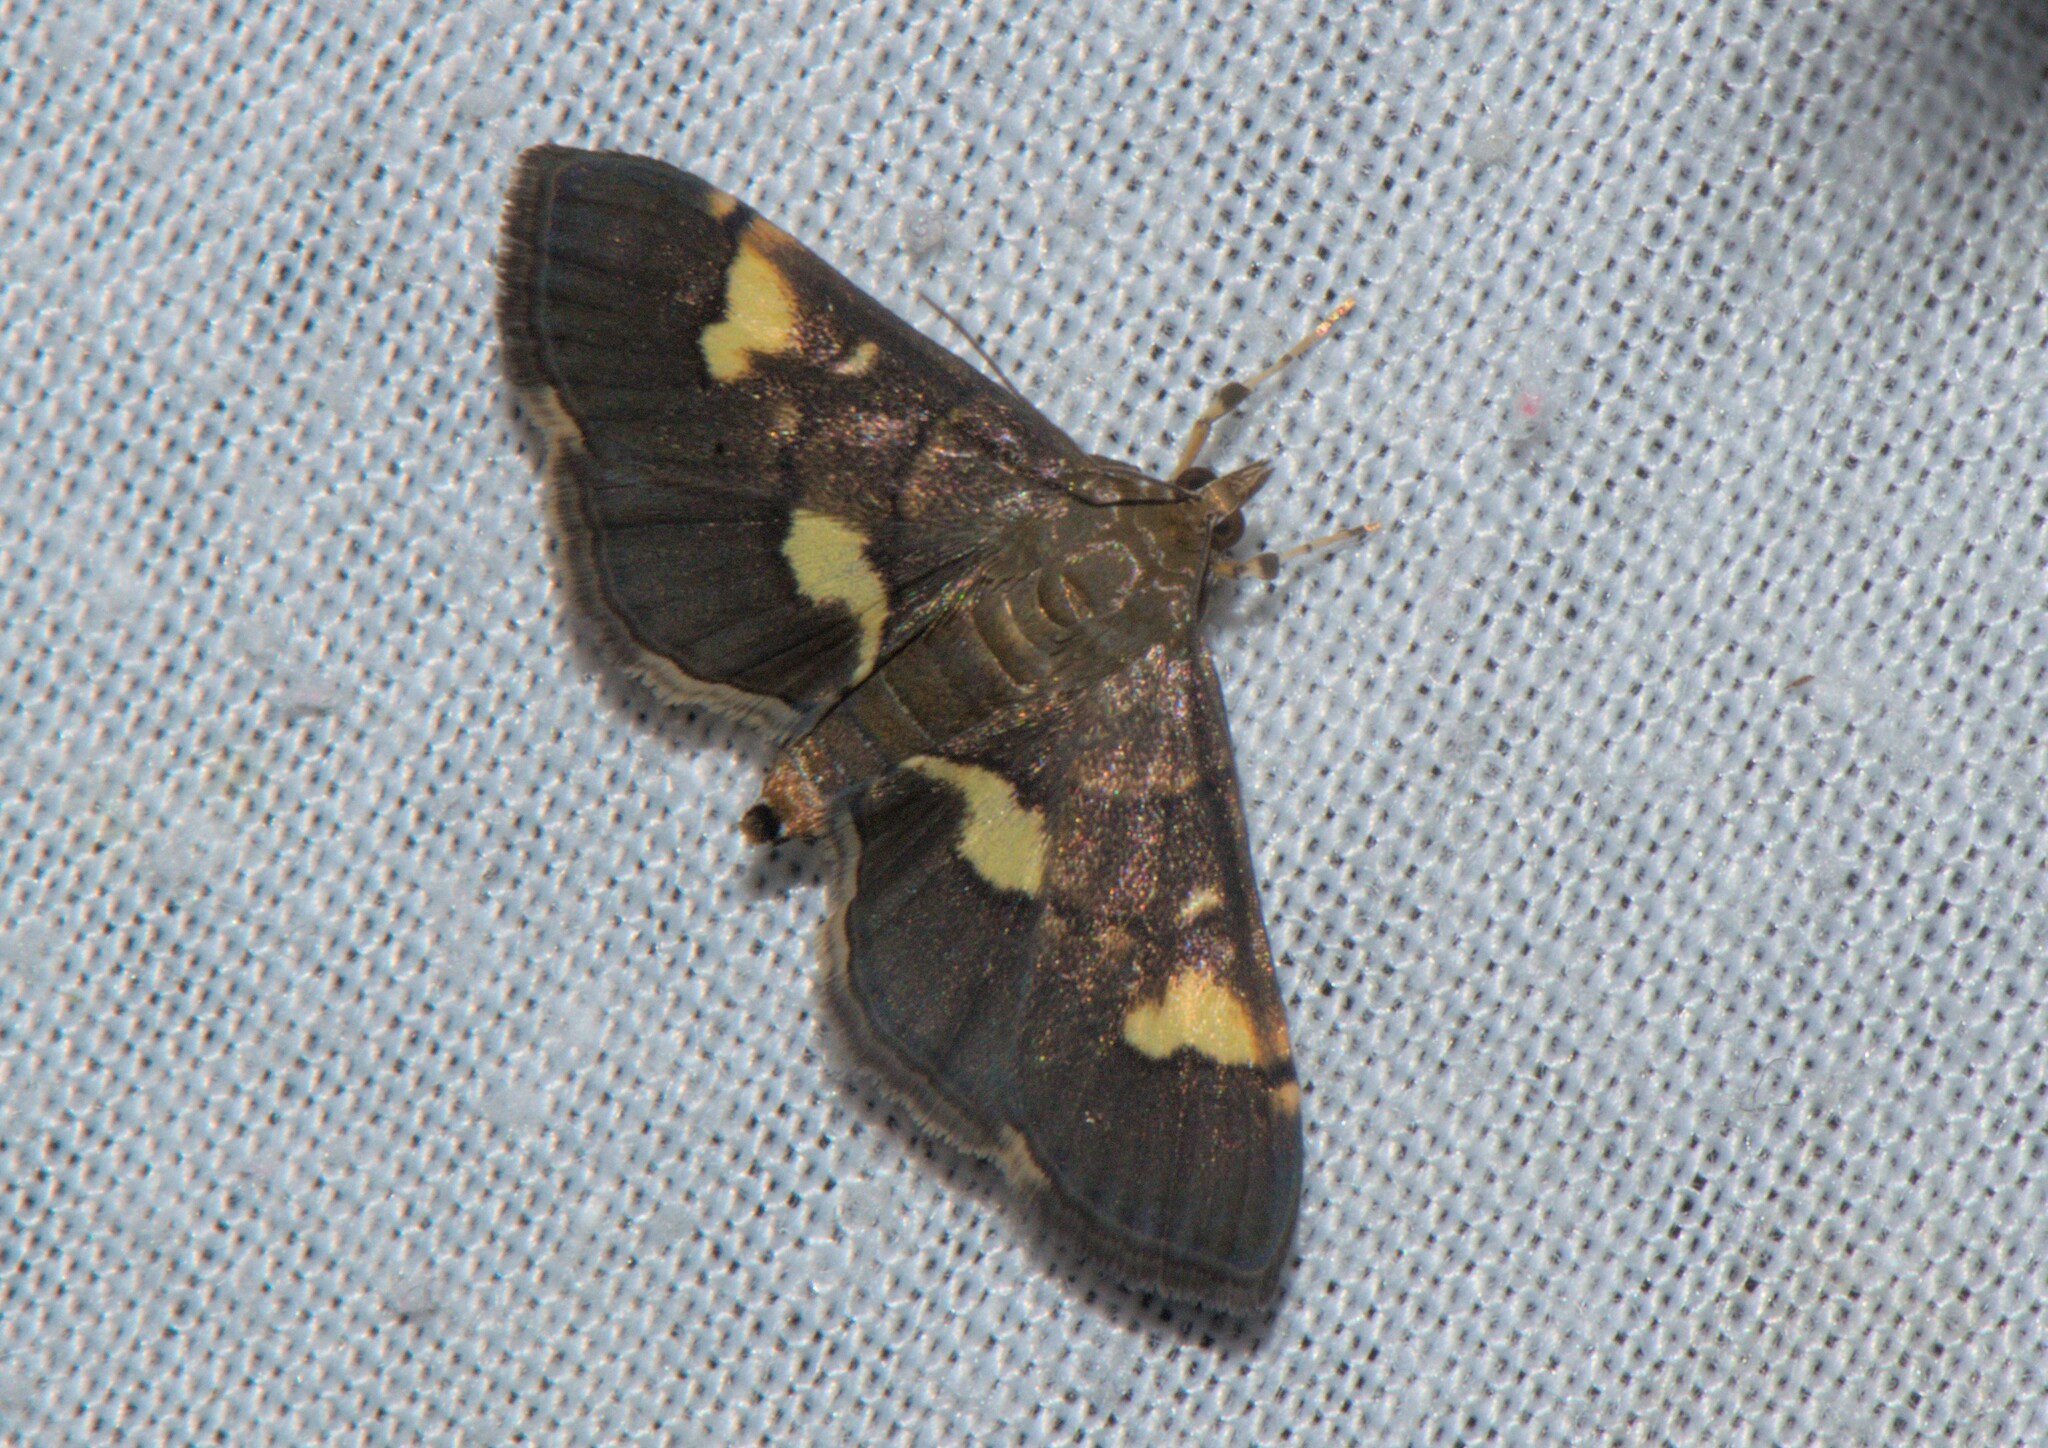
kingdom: Animalia
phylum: Arthropoda
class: Insecta
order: Lepidoptera
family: Crambidae
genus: Syngamia
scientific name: Syngamia falsidicalis
